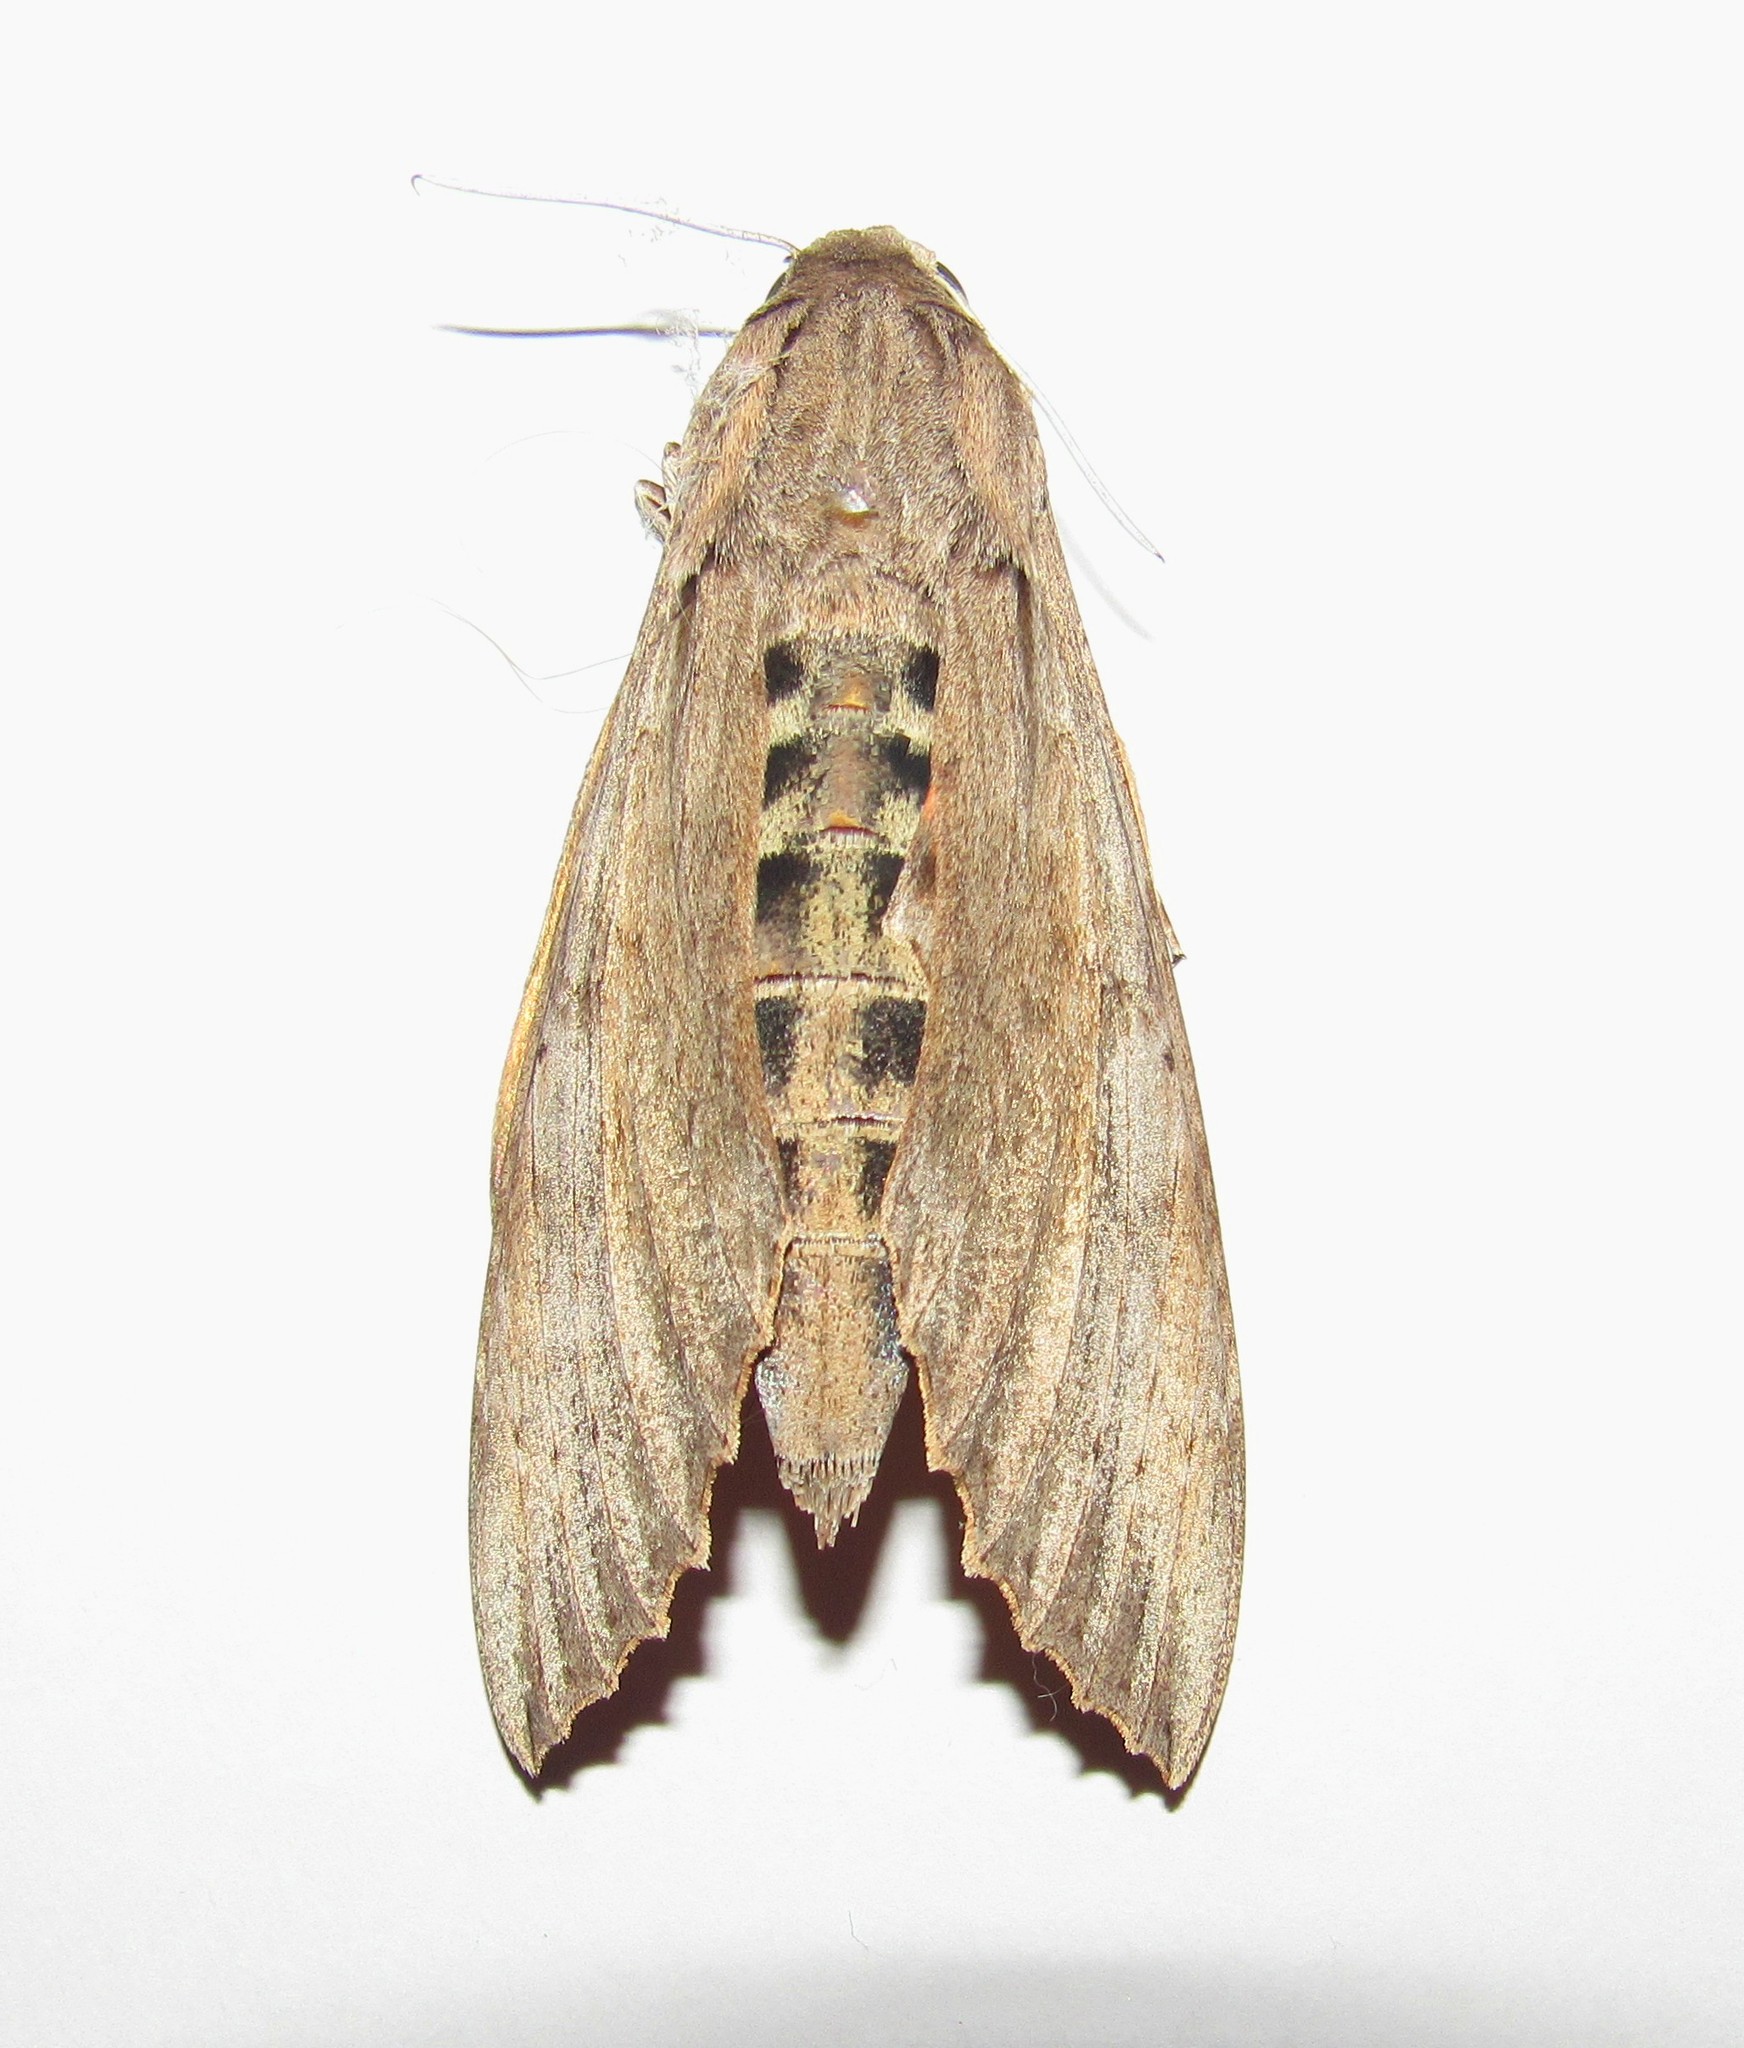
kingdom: Animalia
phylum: Arthropoda
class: Insecta
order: Lepidoptera
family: Sphingidae
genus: Erinnyis
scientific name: Erinnyis ello
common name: Ello sphinx
